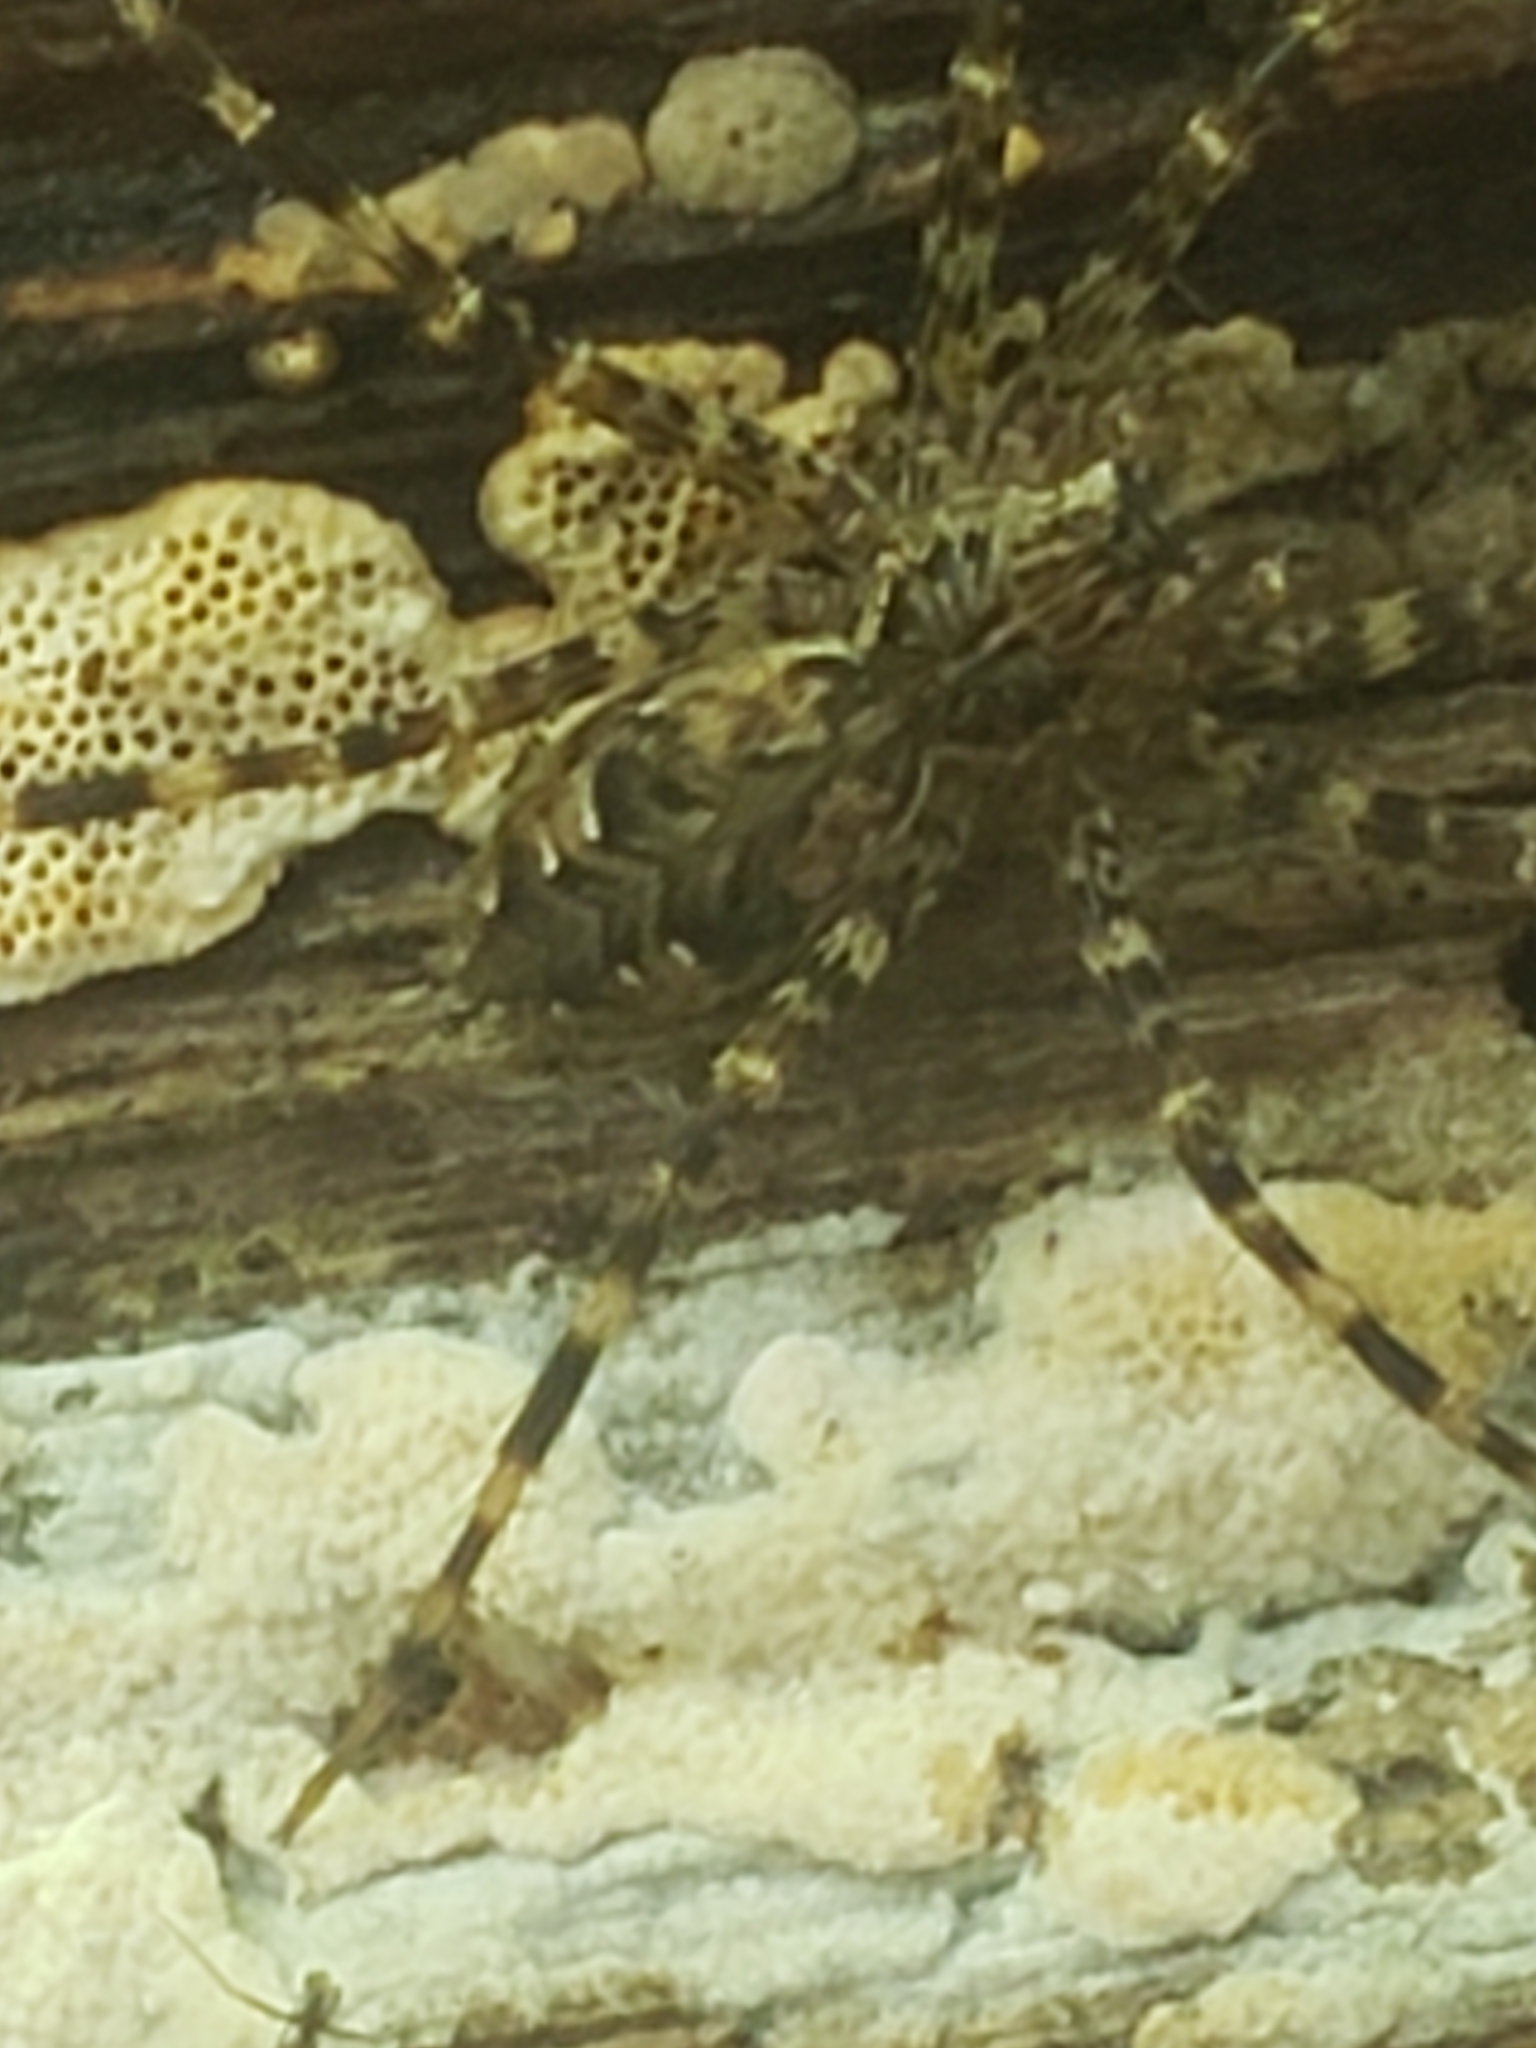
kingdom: Animalia
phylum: Arthropoda
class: Arachnida
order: Araneae
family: Pisauridae
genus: Dolomedes
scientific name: Dolomedes tenebrosus
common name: Dark fishing spider
